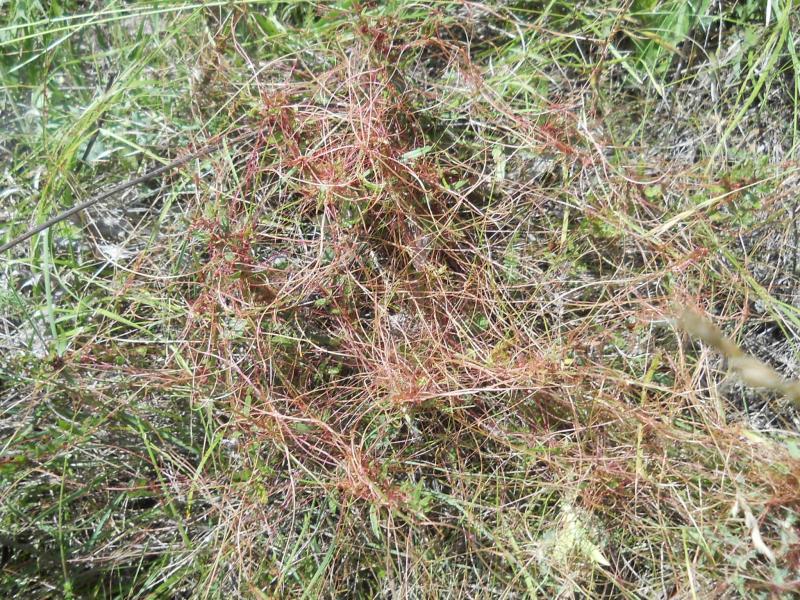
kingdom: Plantae
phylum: Tracheophyta
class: Magnoliopsida
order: Solanales
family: Convolvulaceae
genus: Cuscuta
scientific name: Cuscuta campestris
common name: Yellow dodder
